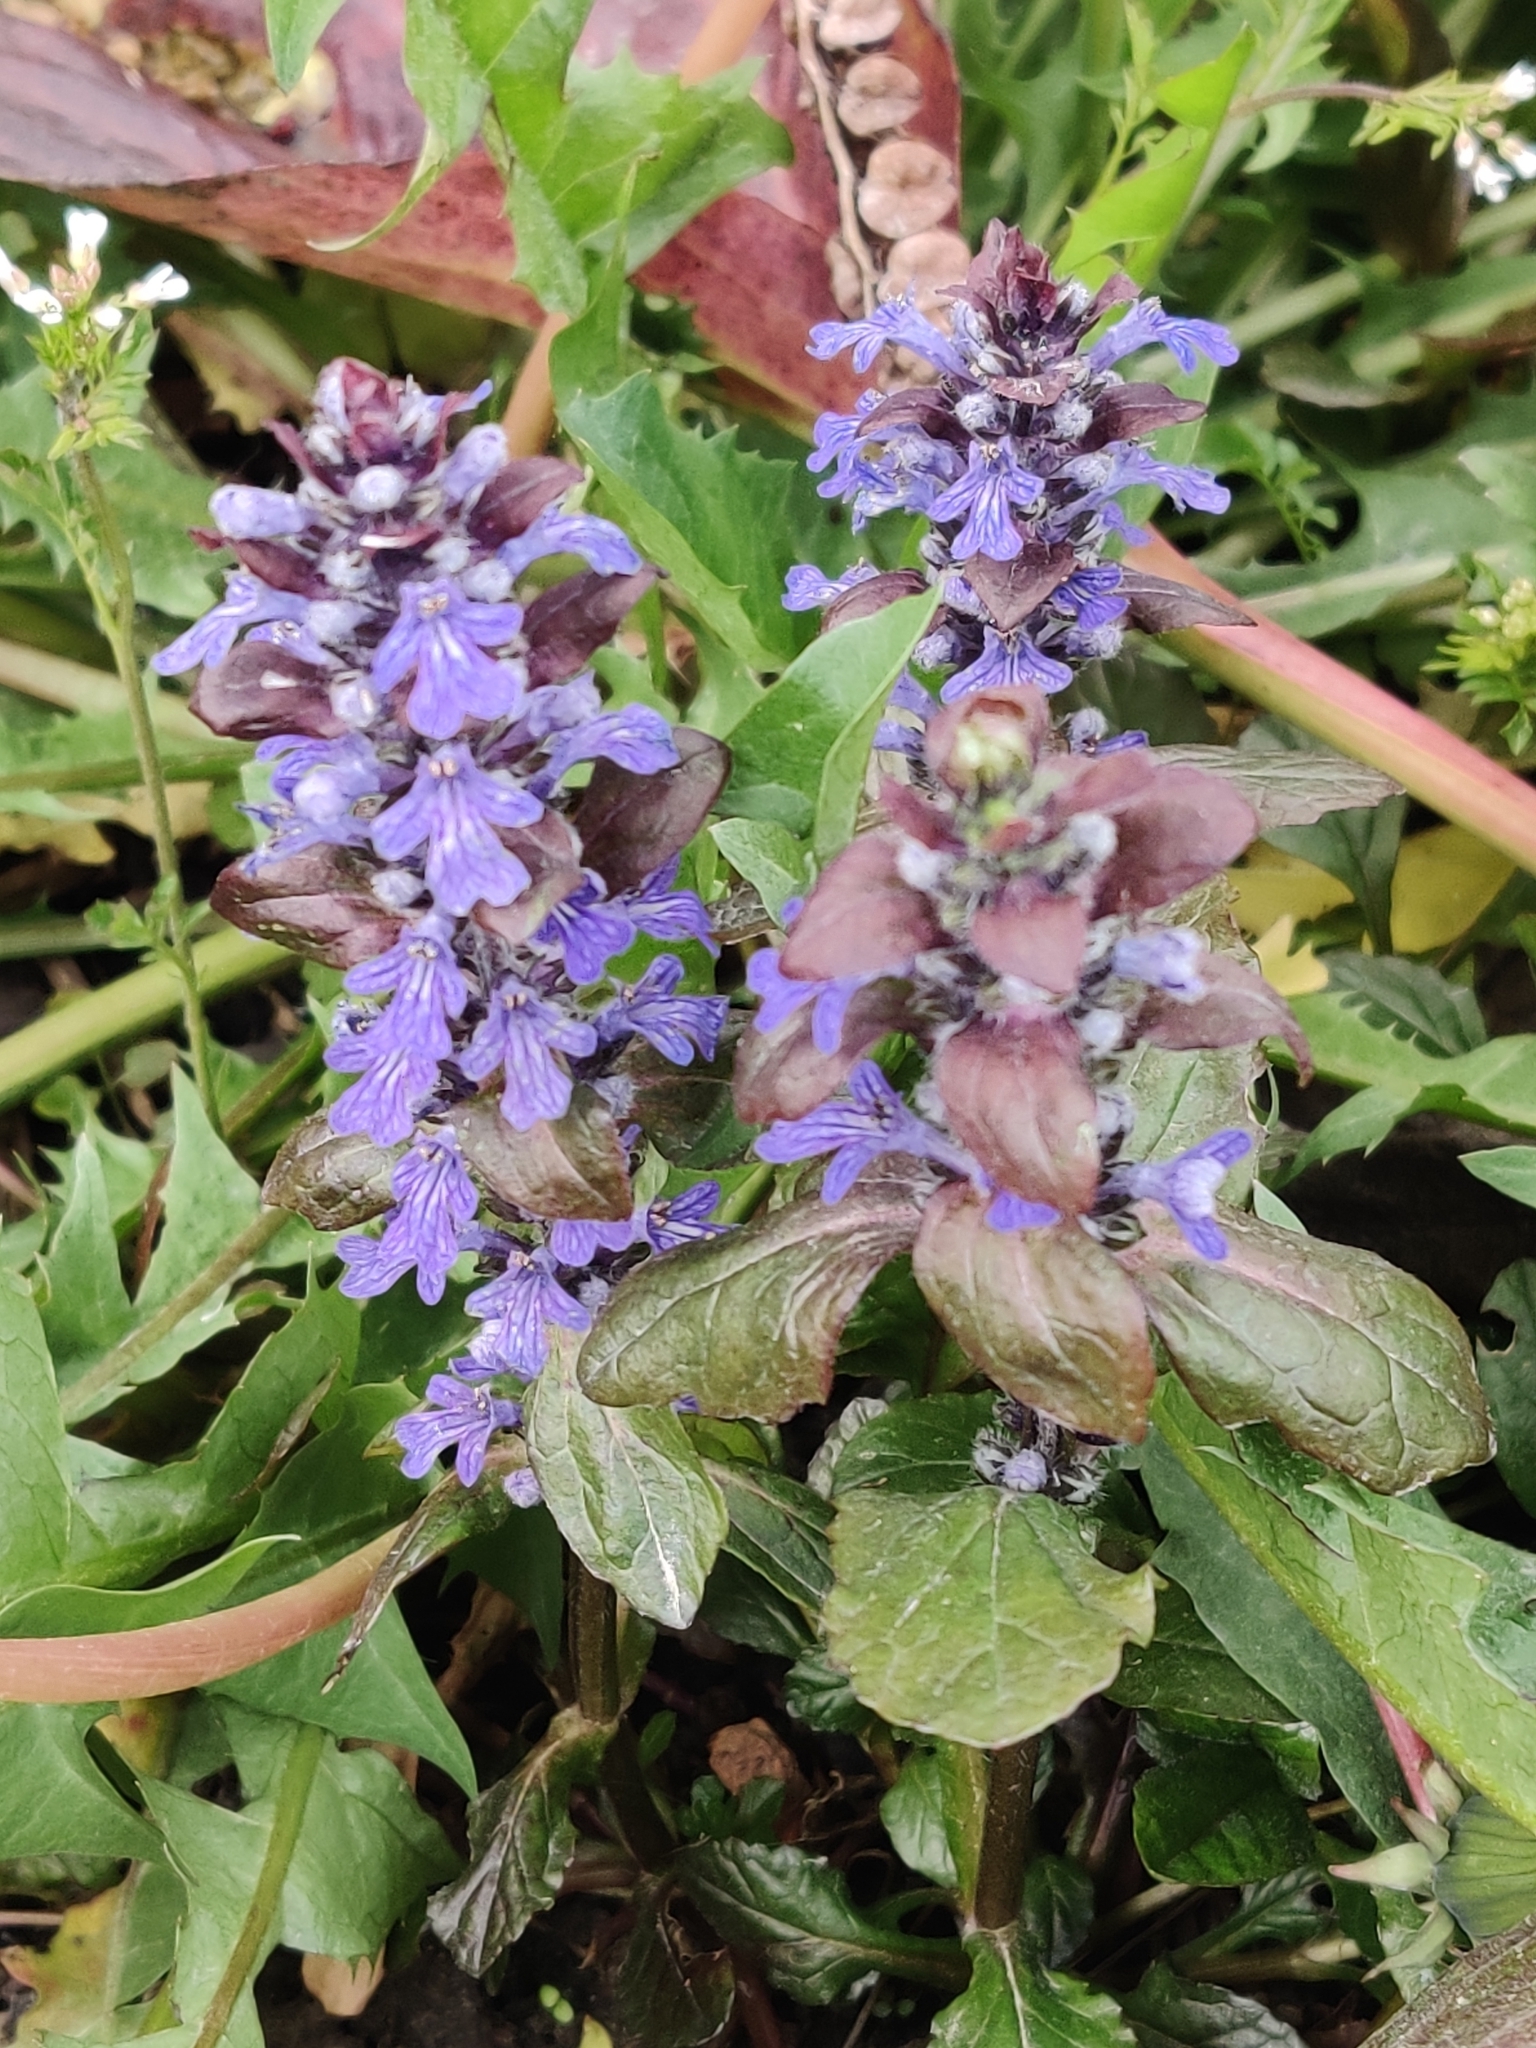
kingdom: Plantae
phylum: Tracheophyta
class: Magnoliopsida
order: Lamiales
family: Lamiaceae
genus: Ajuga
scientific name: Ajuga reptans
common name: Bugle
